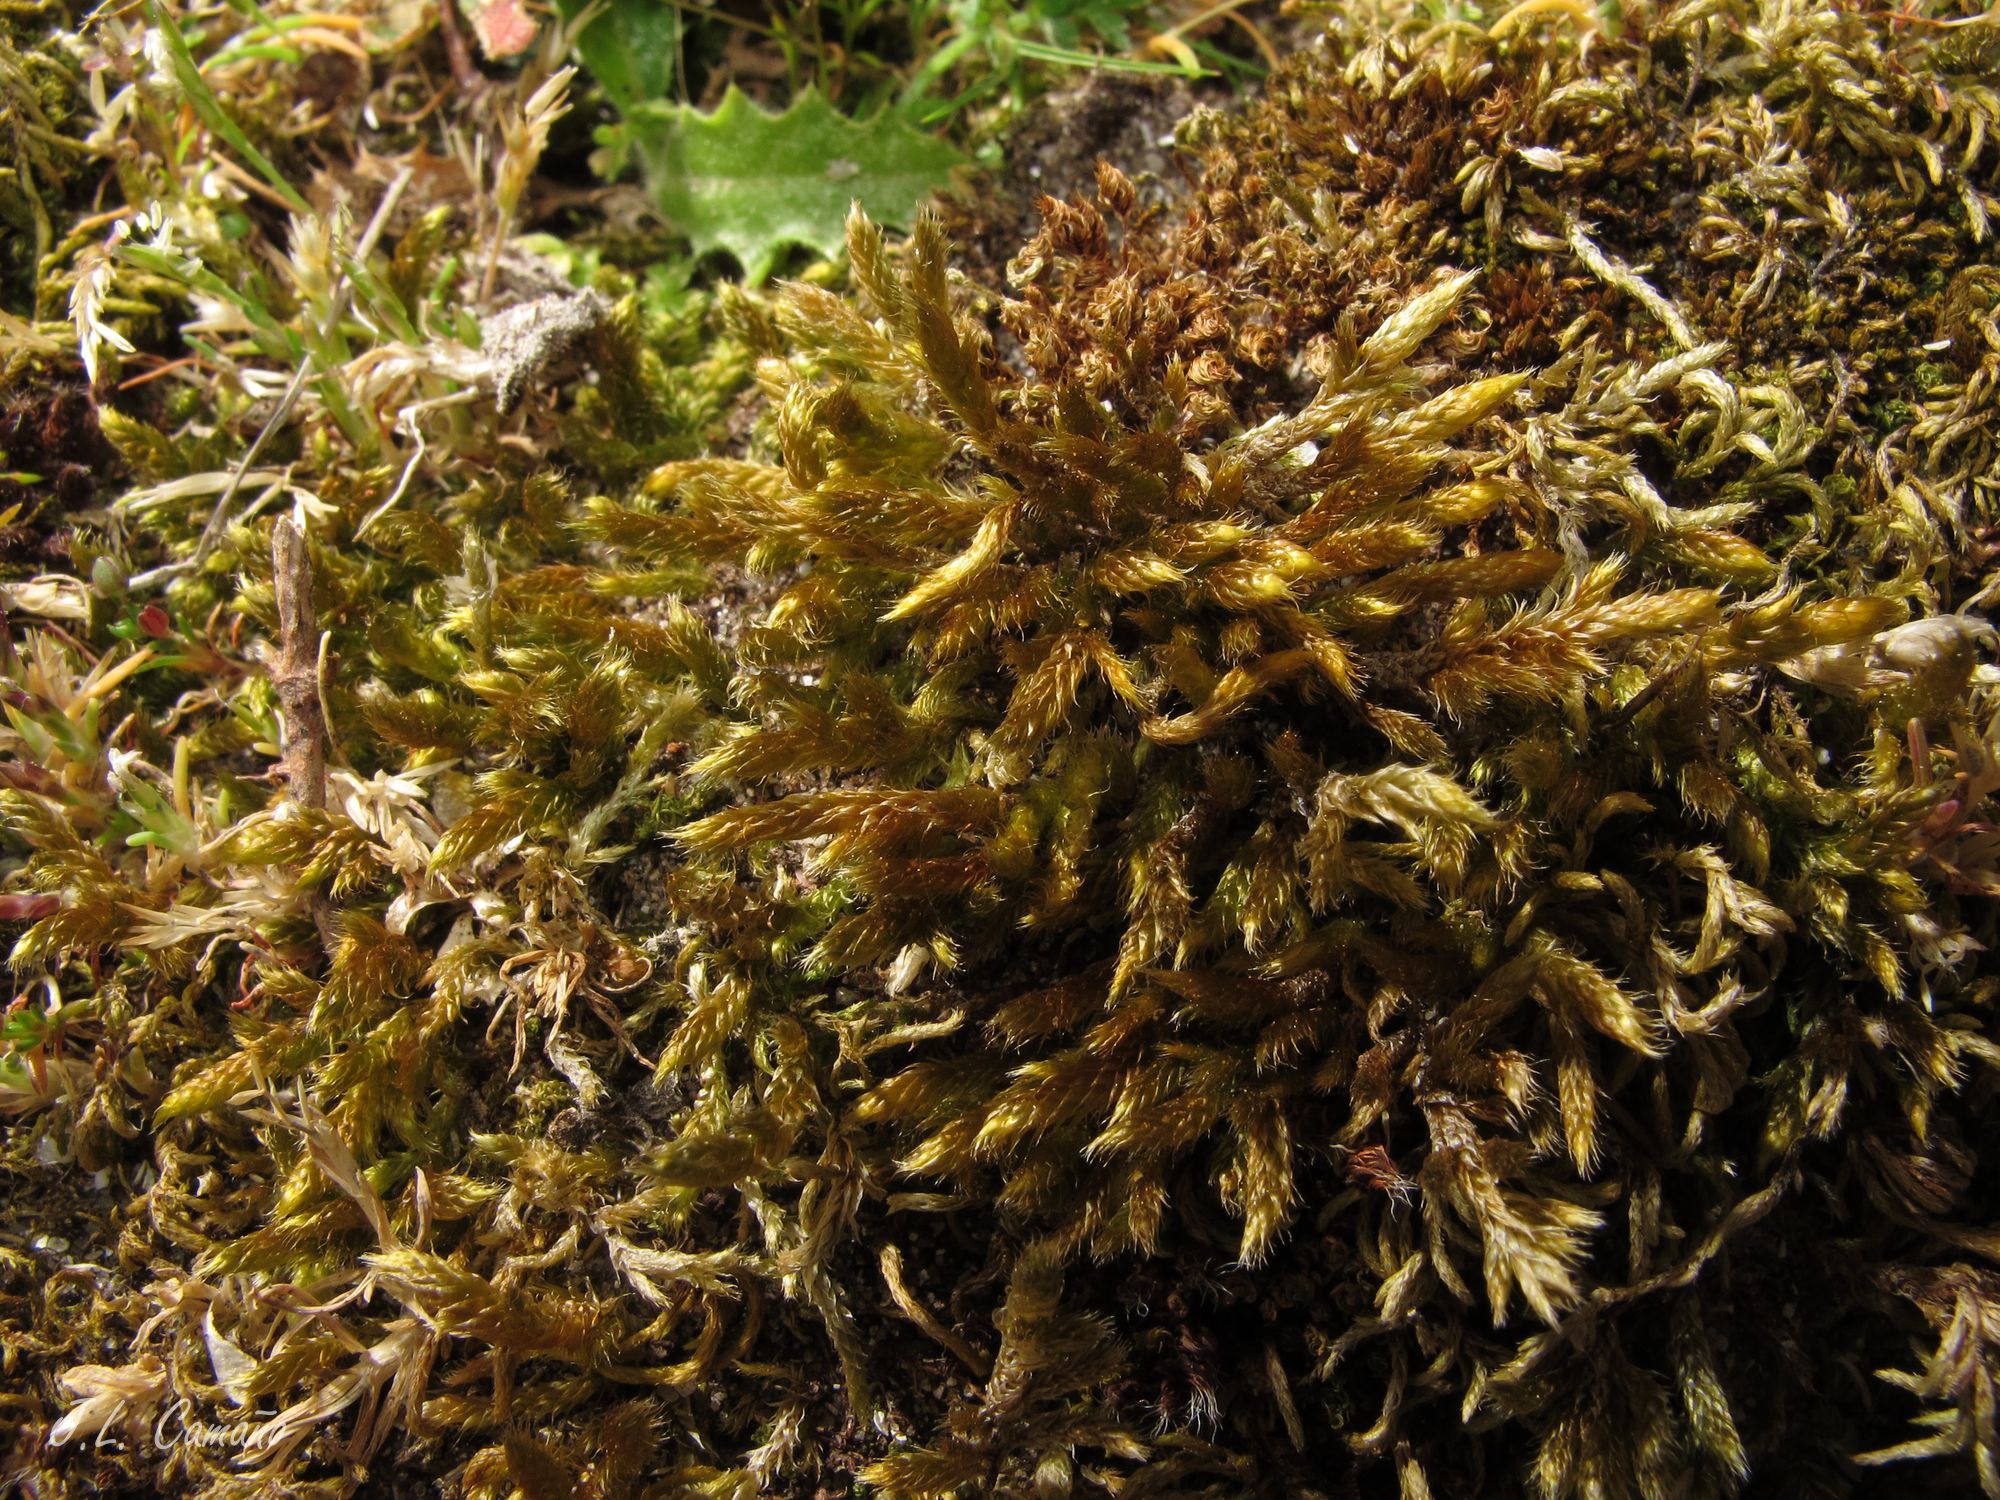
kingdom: Plantae
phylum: Bryophyta
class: Bryopsida
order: Hypnales
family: Hypnaceae
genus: Hypnum
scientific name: Hypnum cupressiforme
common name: Cypress-leaved plait-moss
